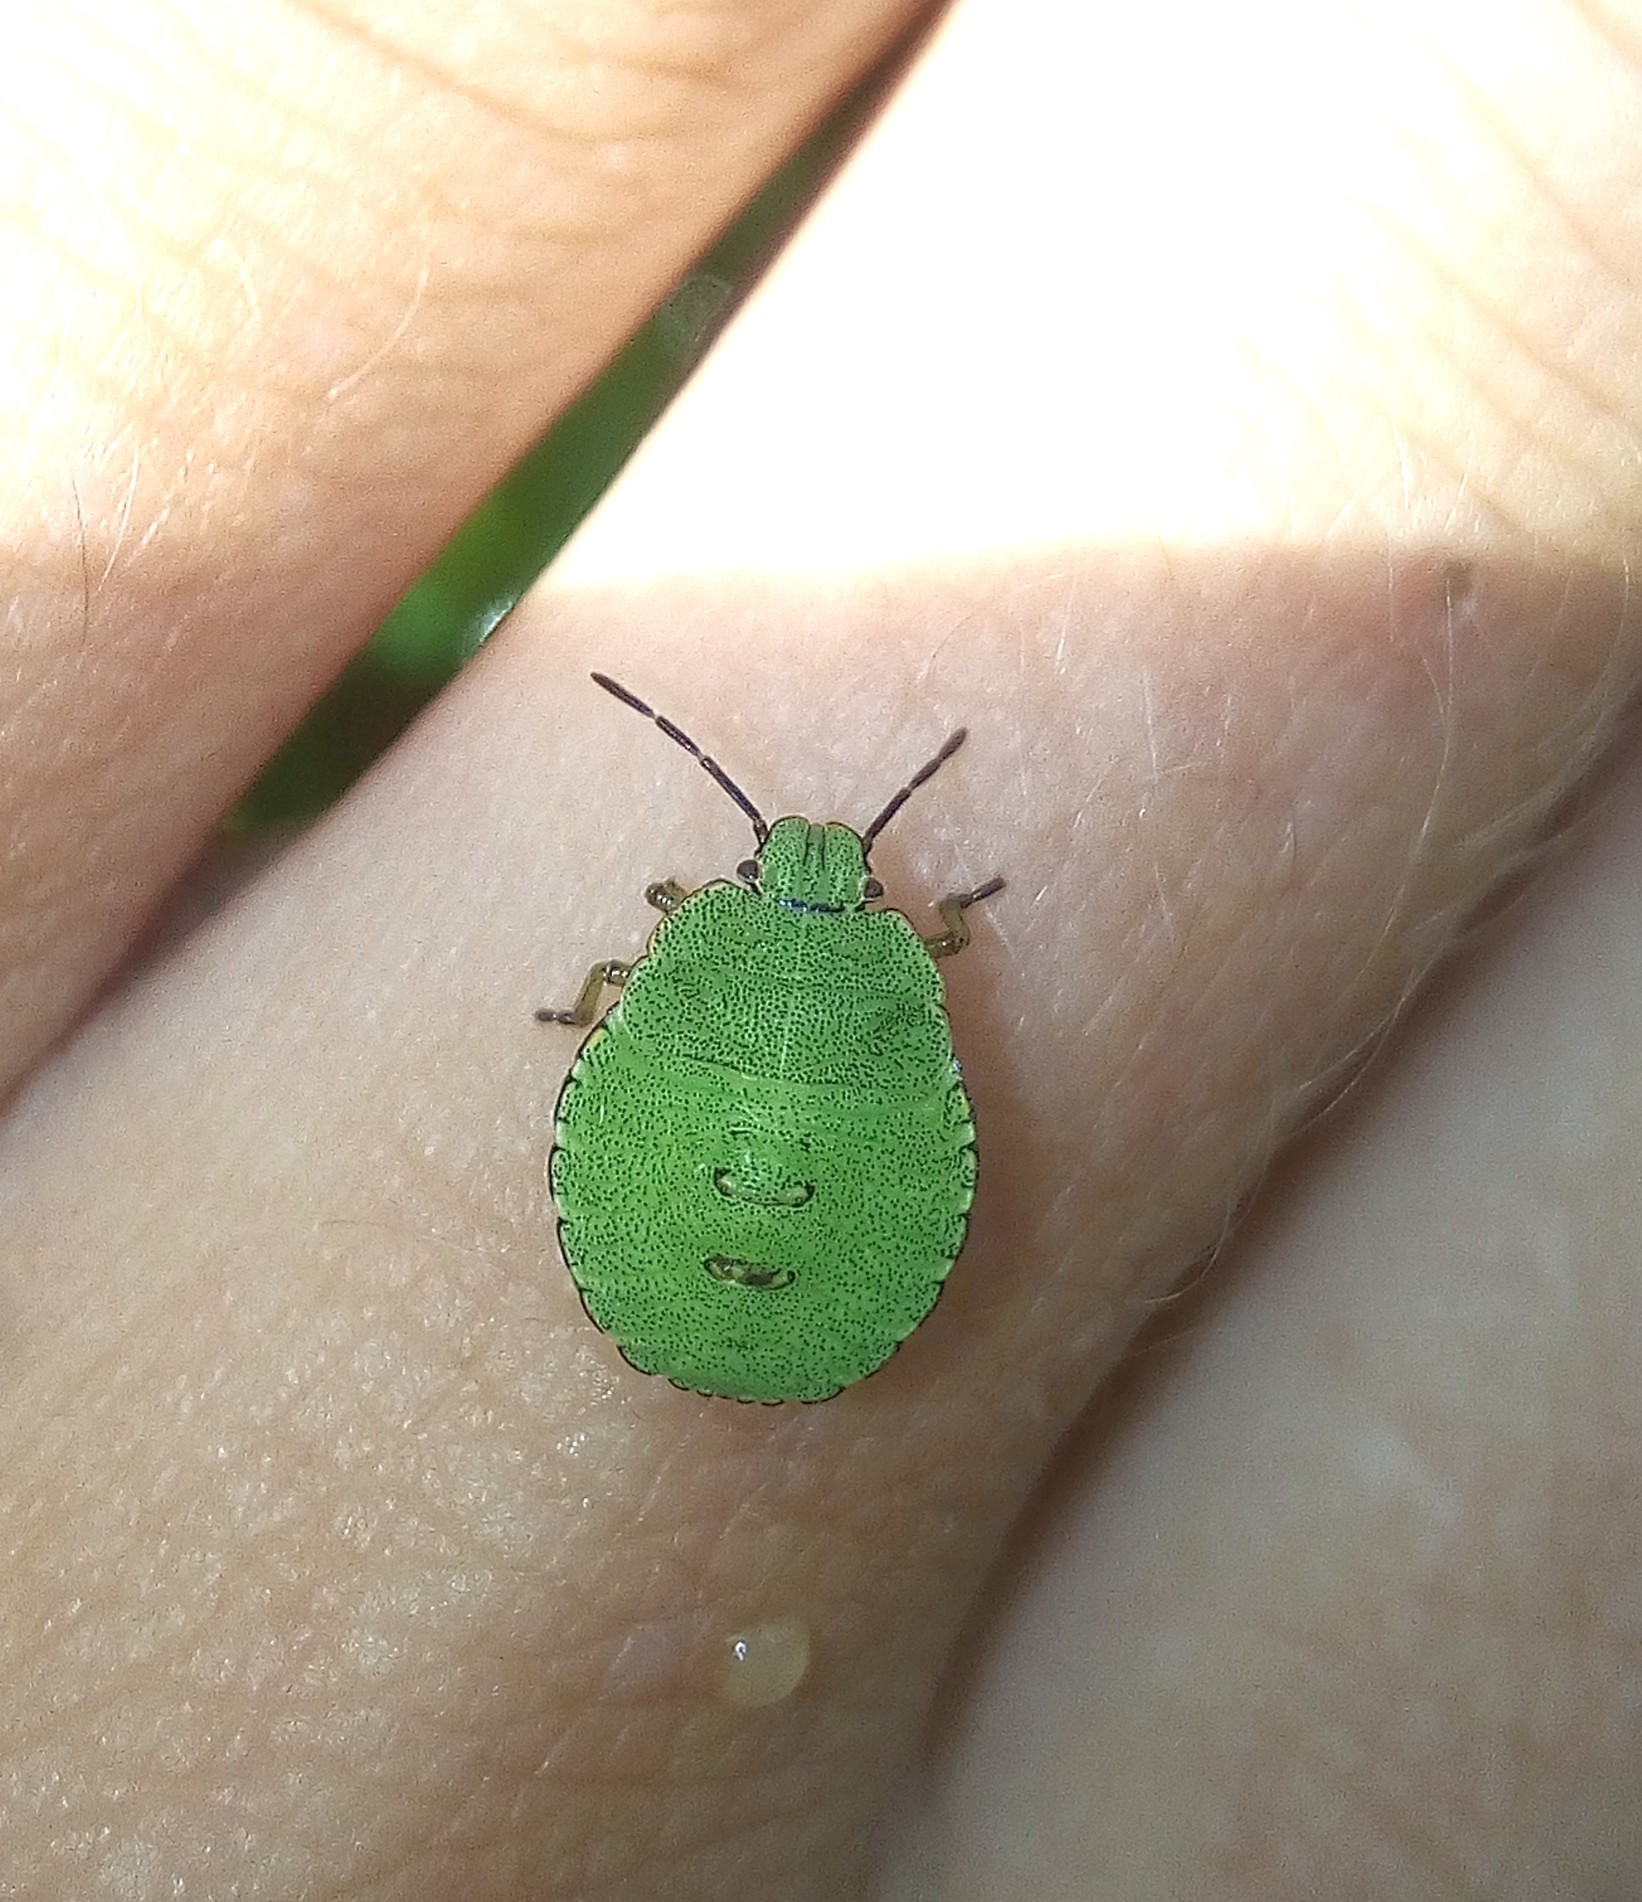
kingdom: Animalia
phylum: Arthropoda
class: Insecta
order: Hemiptera
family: Pentatomidae
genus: Palomena
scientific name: Palomena prasina
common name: Green shieldbug
